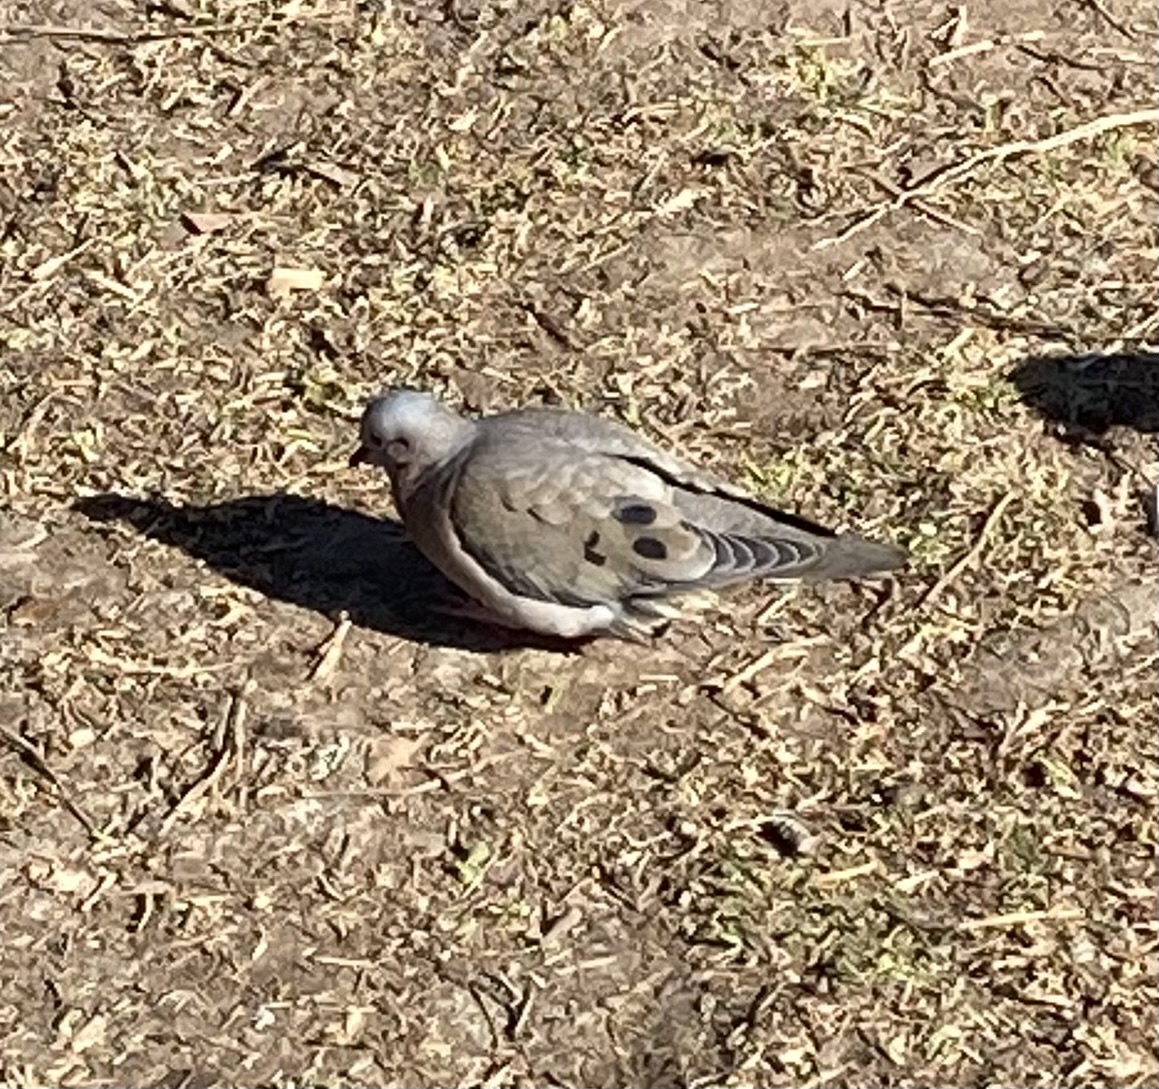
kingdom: Animalia
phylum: Chordata
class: Aves
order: Columbiformes
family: Columbidae
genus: Zenaida
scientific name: Zenaida auriculata
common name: Eared dove
